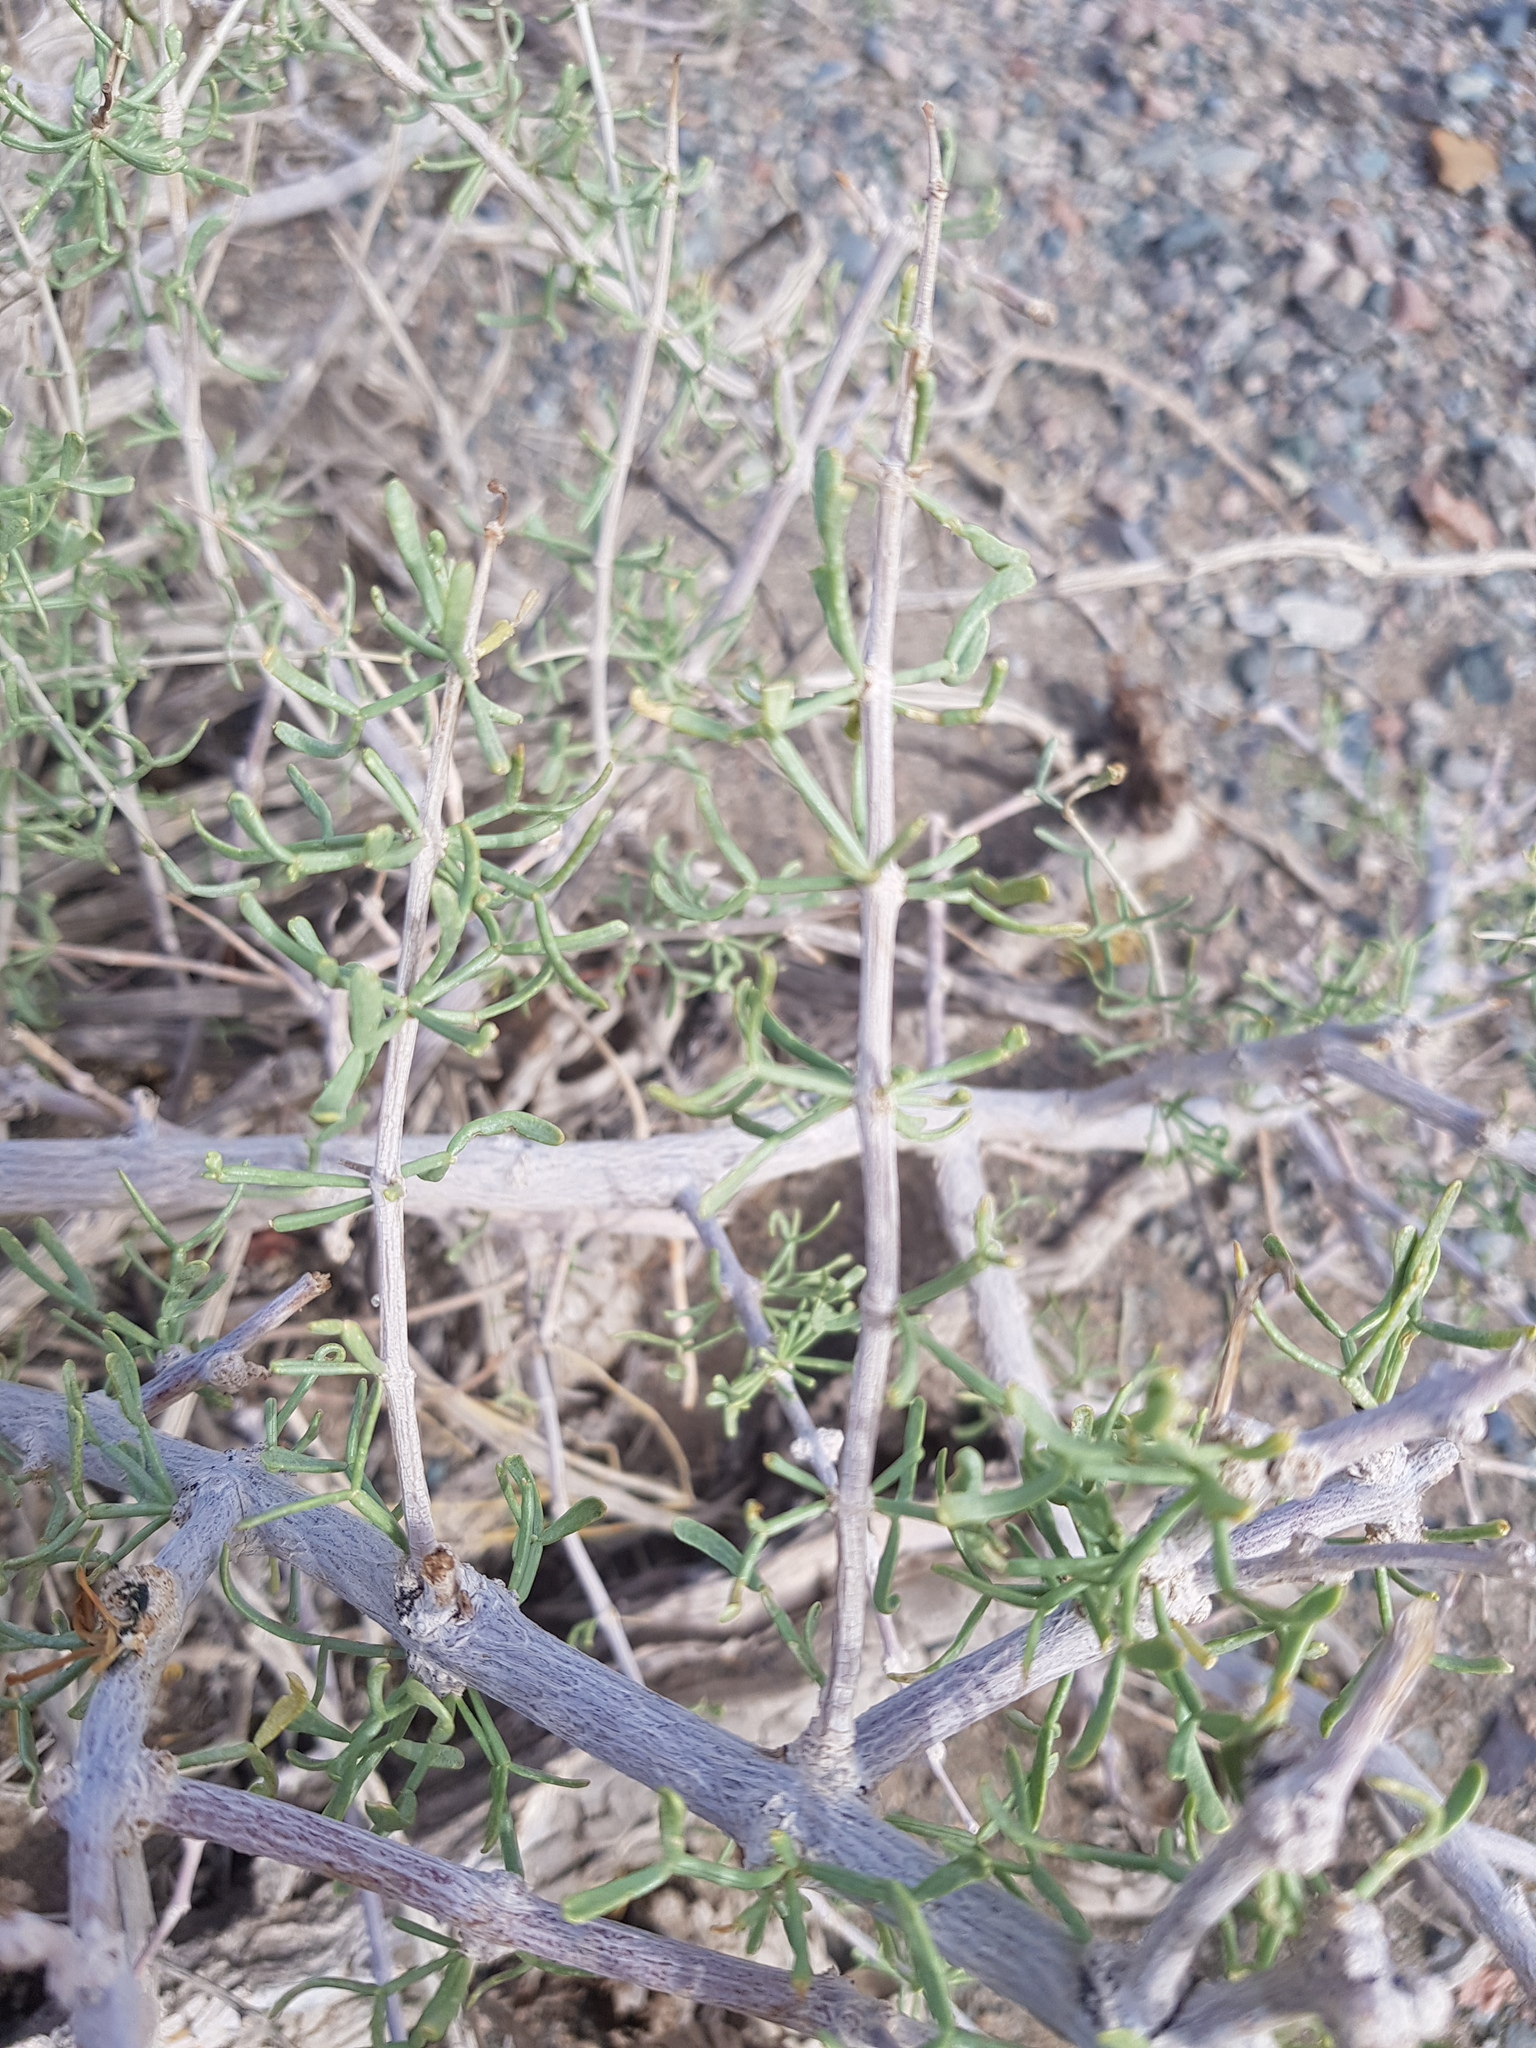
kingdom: Plantae
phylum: Tracheophyta
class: Magnoliopsida
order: Zygophyllales
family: Zygophyllaceae
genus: Zygophyllum
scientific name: Zygophyllum xanthoxylum
